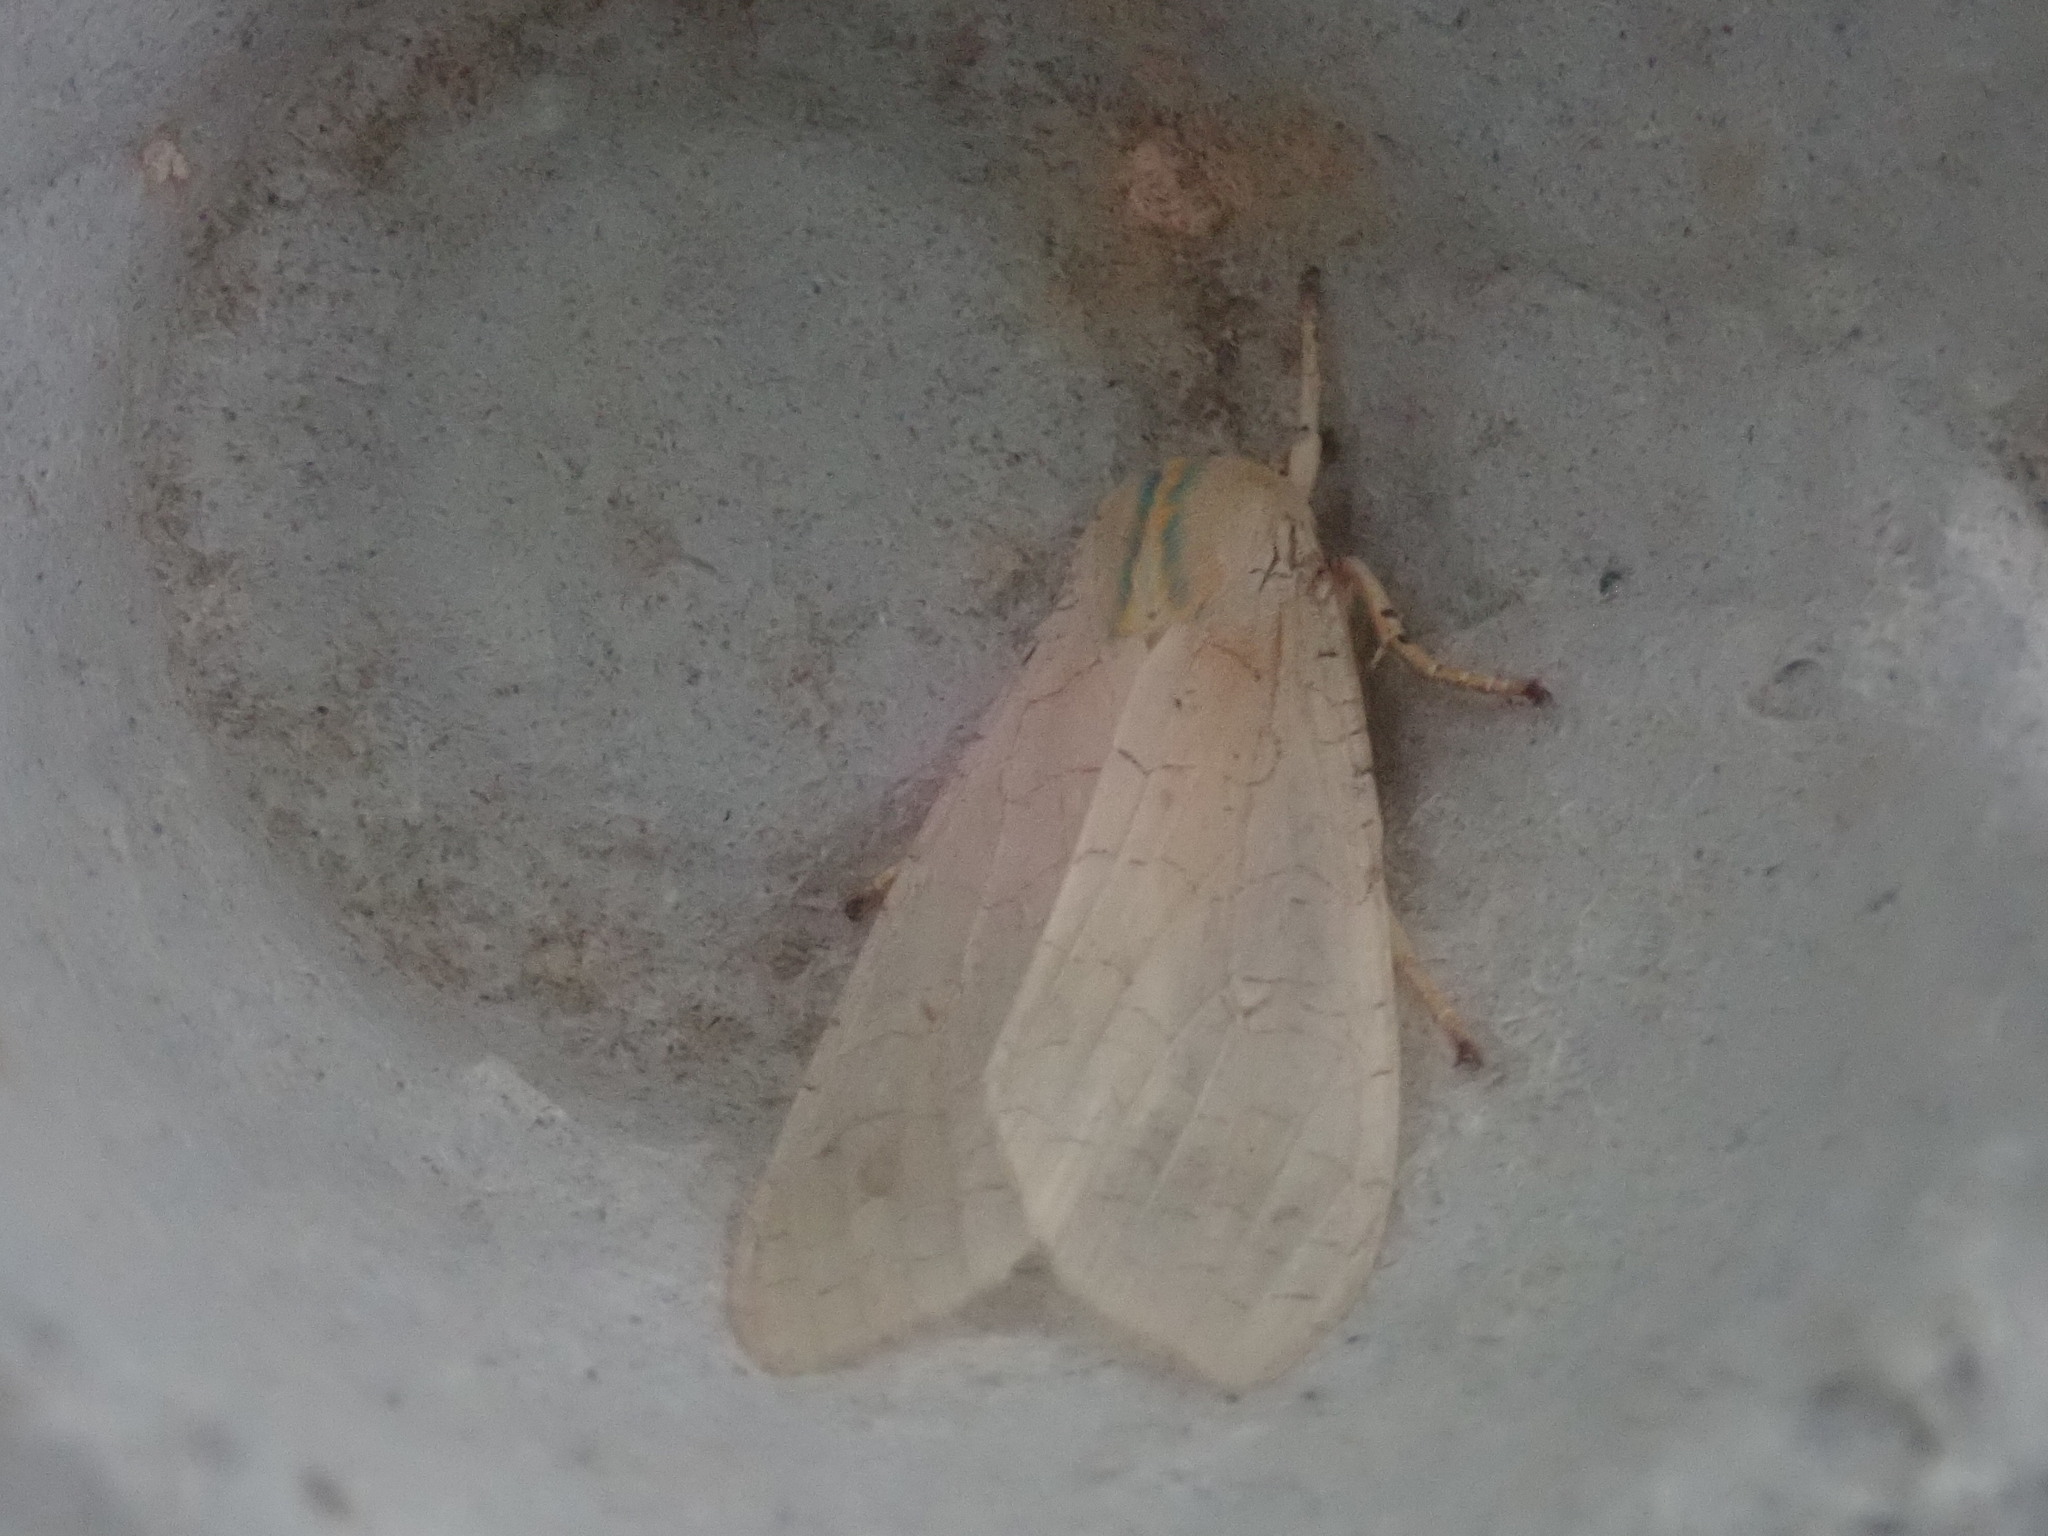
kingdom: Animalia
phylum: Arthropoda
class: Insecta
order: Lepidoptera
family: Erebidae
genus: Halysidota
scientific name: Halysidota tessellaris
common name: Banded tussock moth
